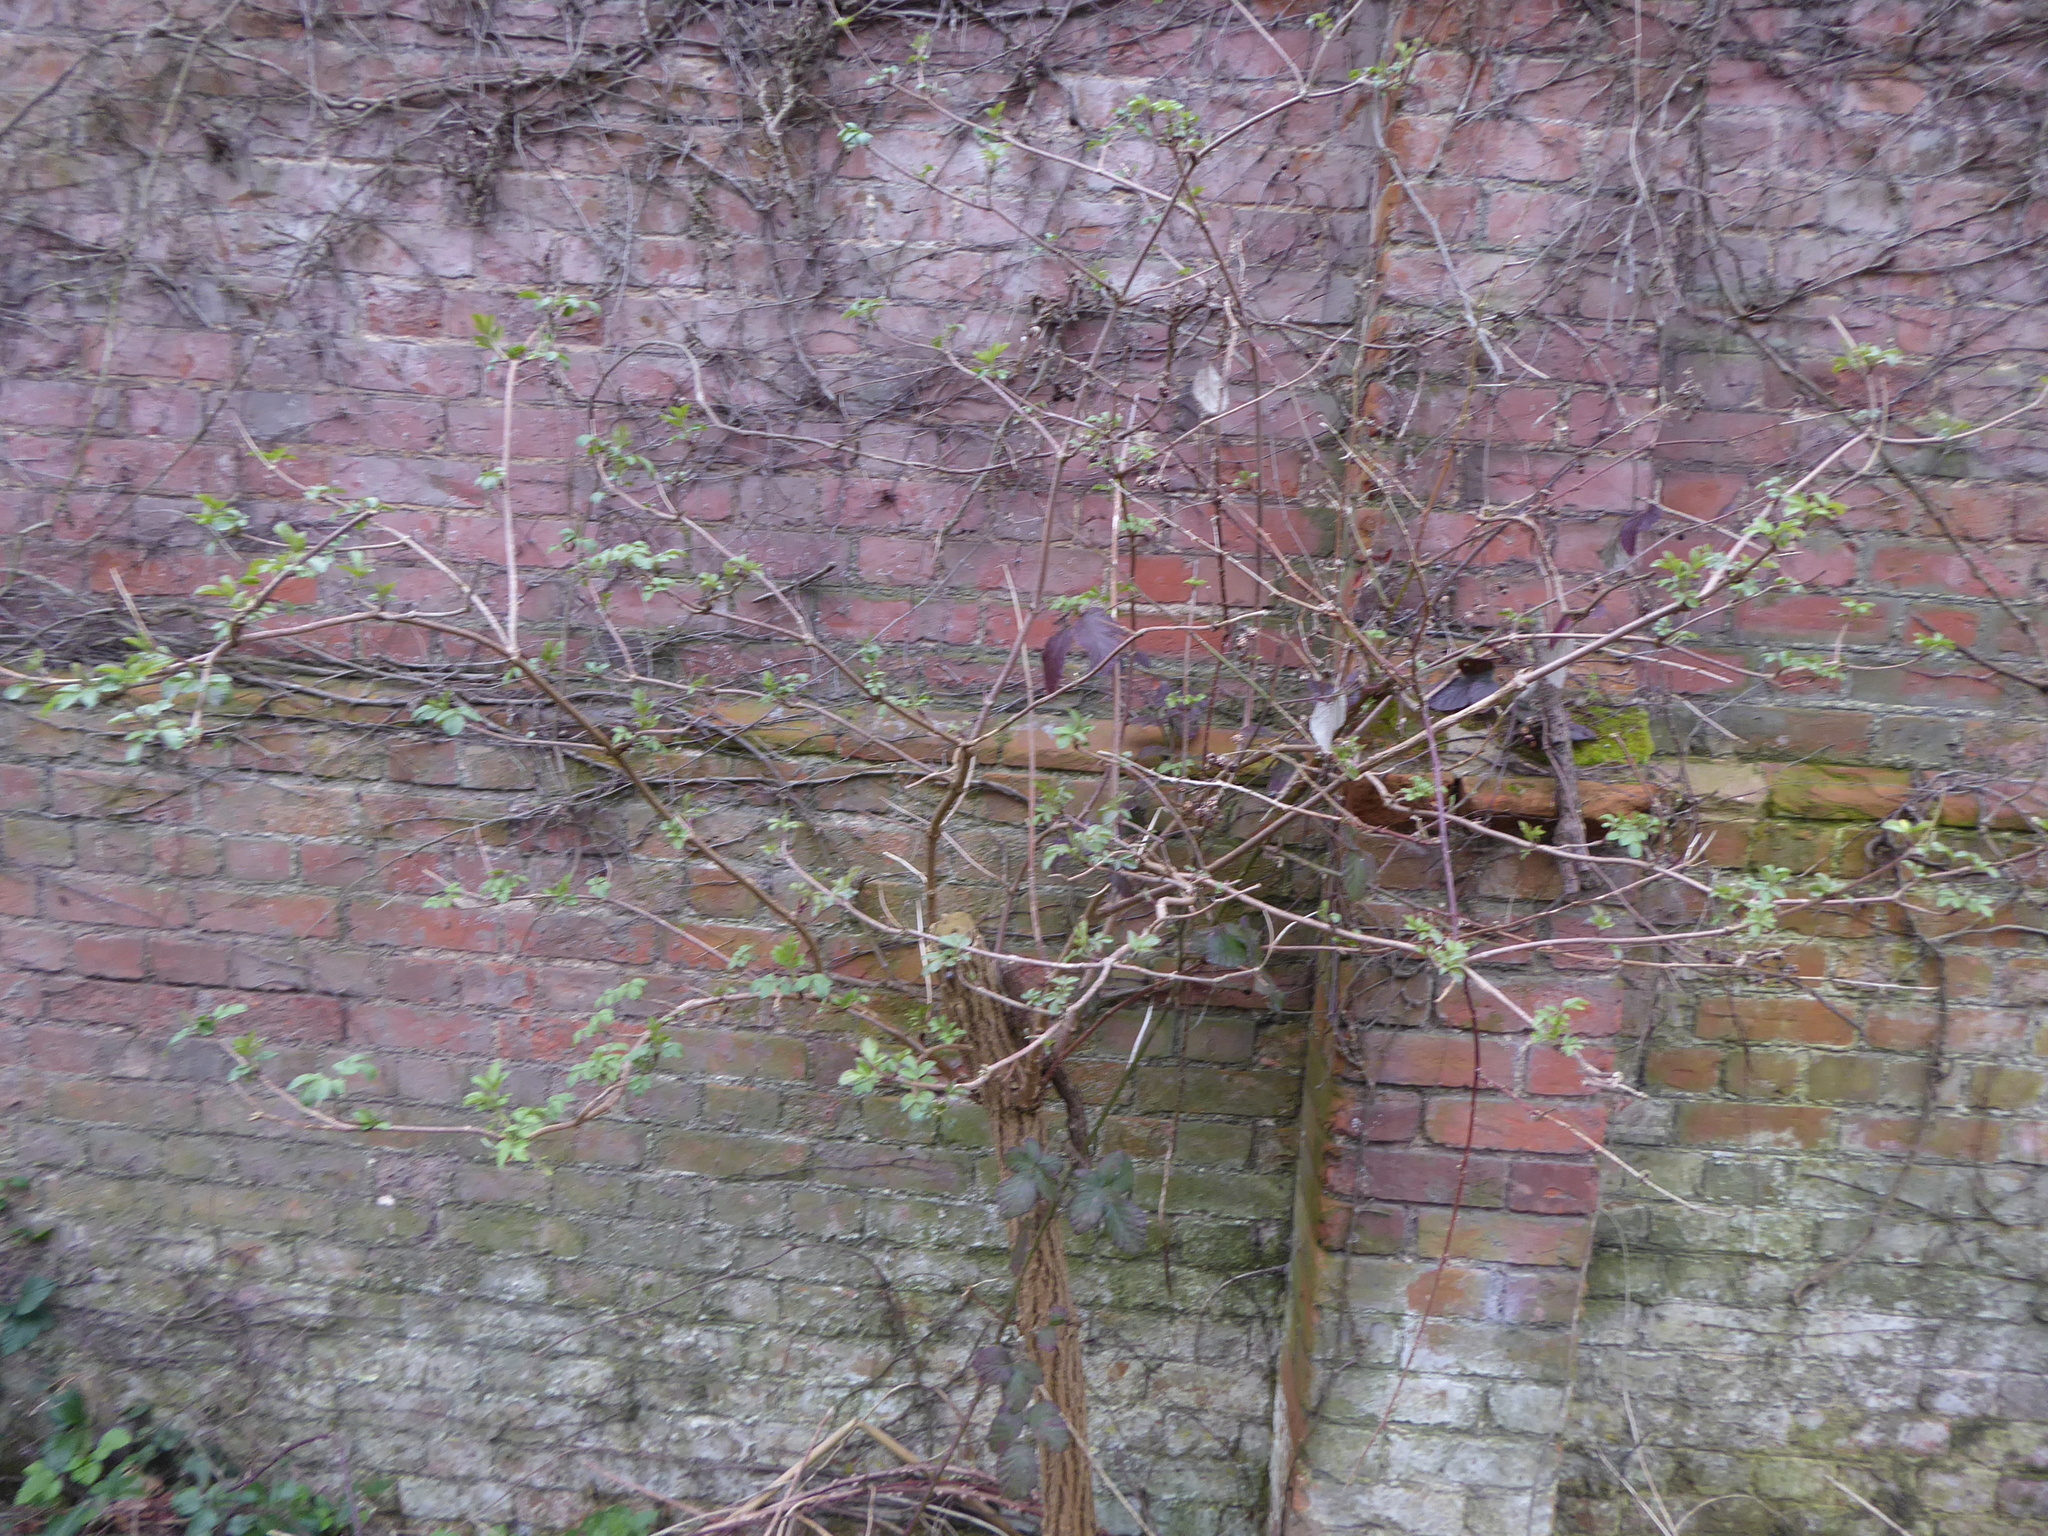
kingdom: Plantae
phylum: Tracheophyta
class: Magnoliopsida
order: Dipsacales
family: Viburnaceae
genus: Sambucus
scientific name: Sambucus nigra
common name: Elder
